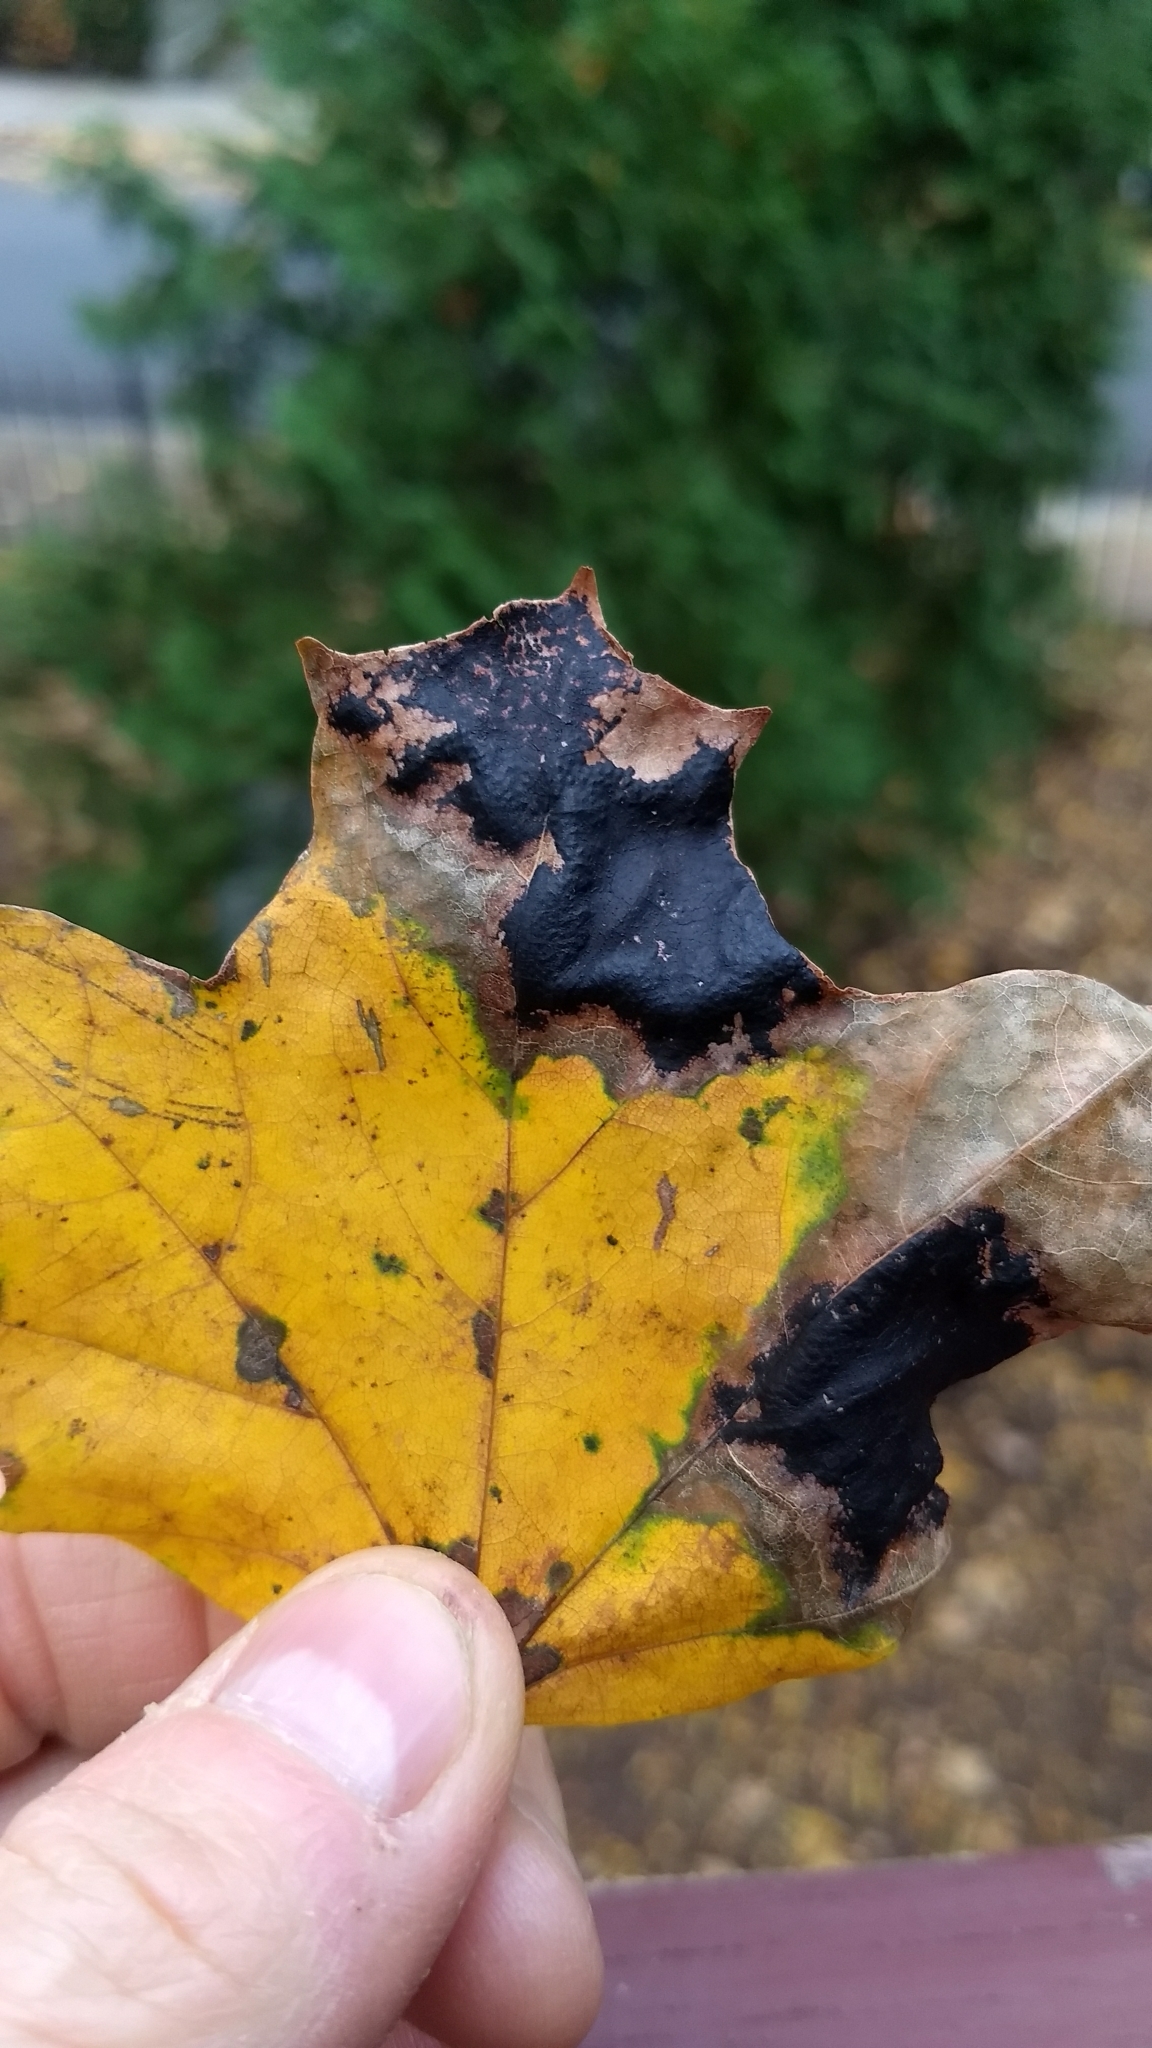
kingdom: Fungi
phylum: Ascomycota
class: Leotiomycetes
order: Rhytismatales
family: Rhytismataceae
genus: Rhytisma
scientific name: Rhytisma acerinum
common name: European tar spot
